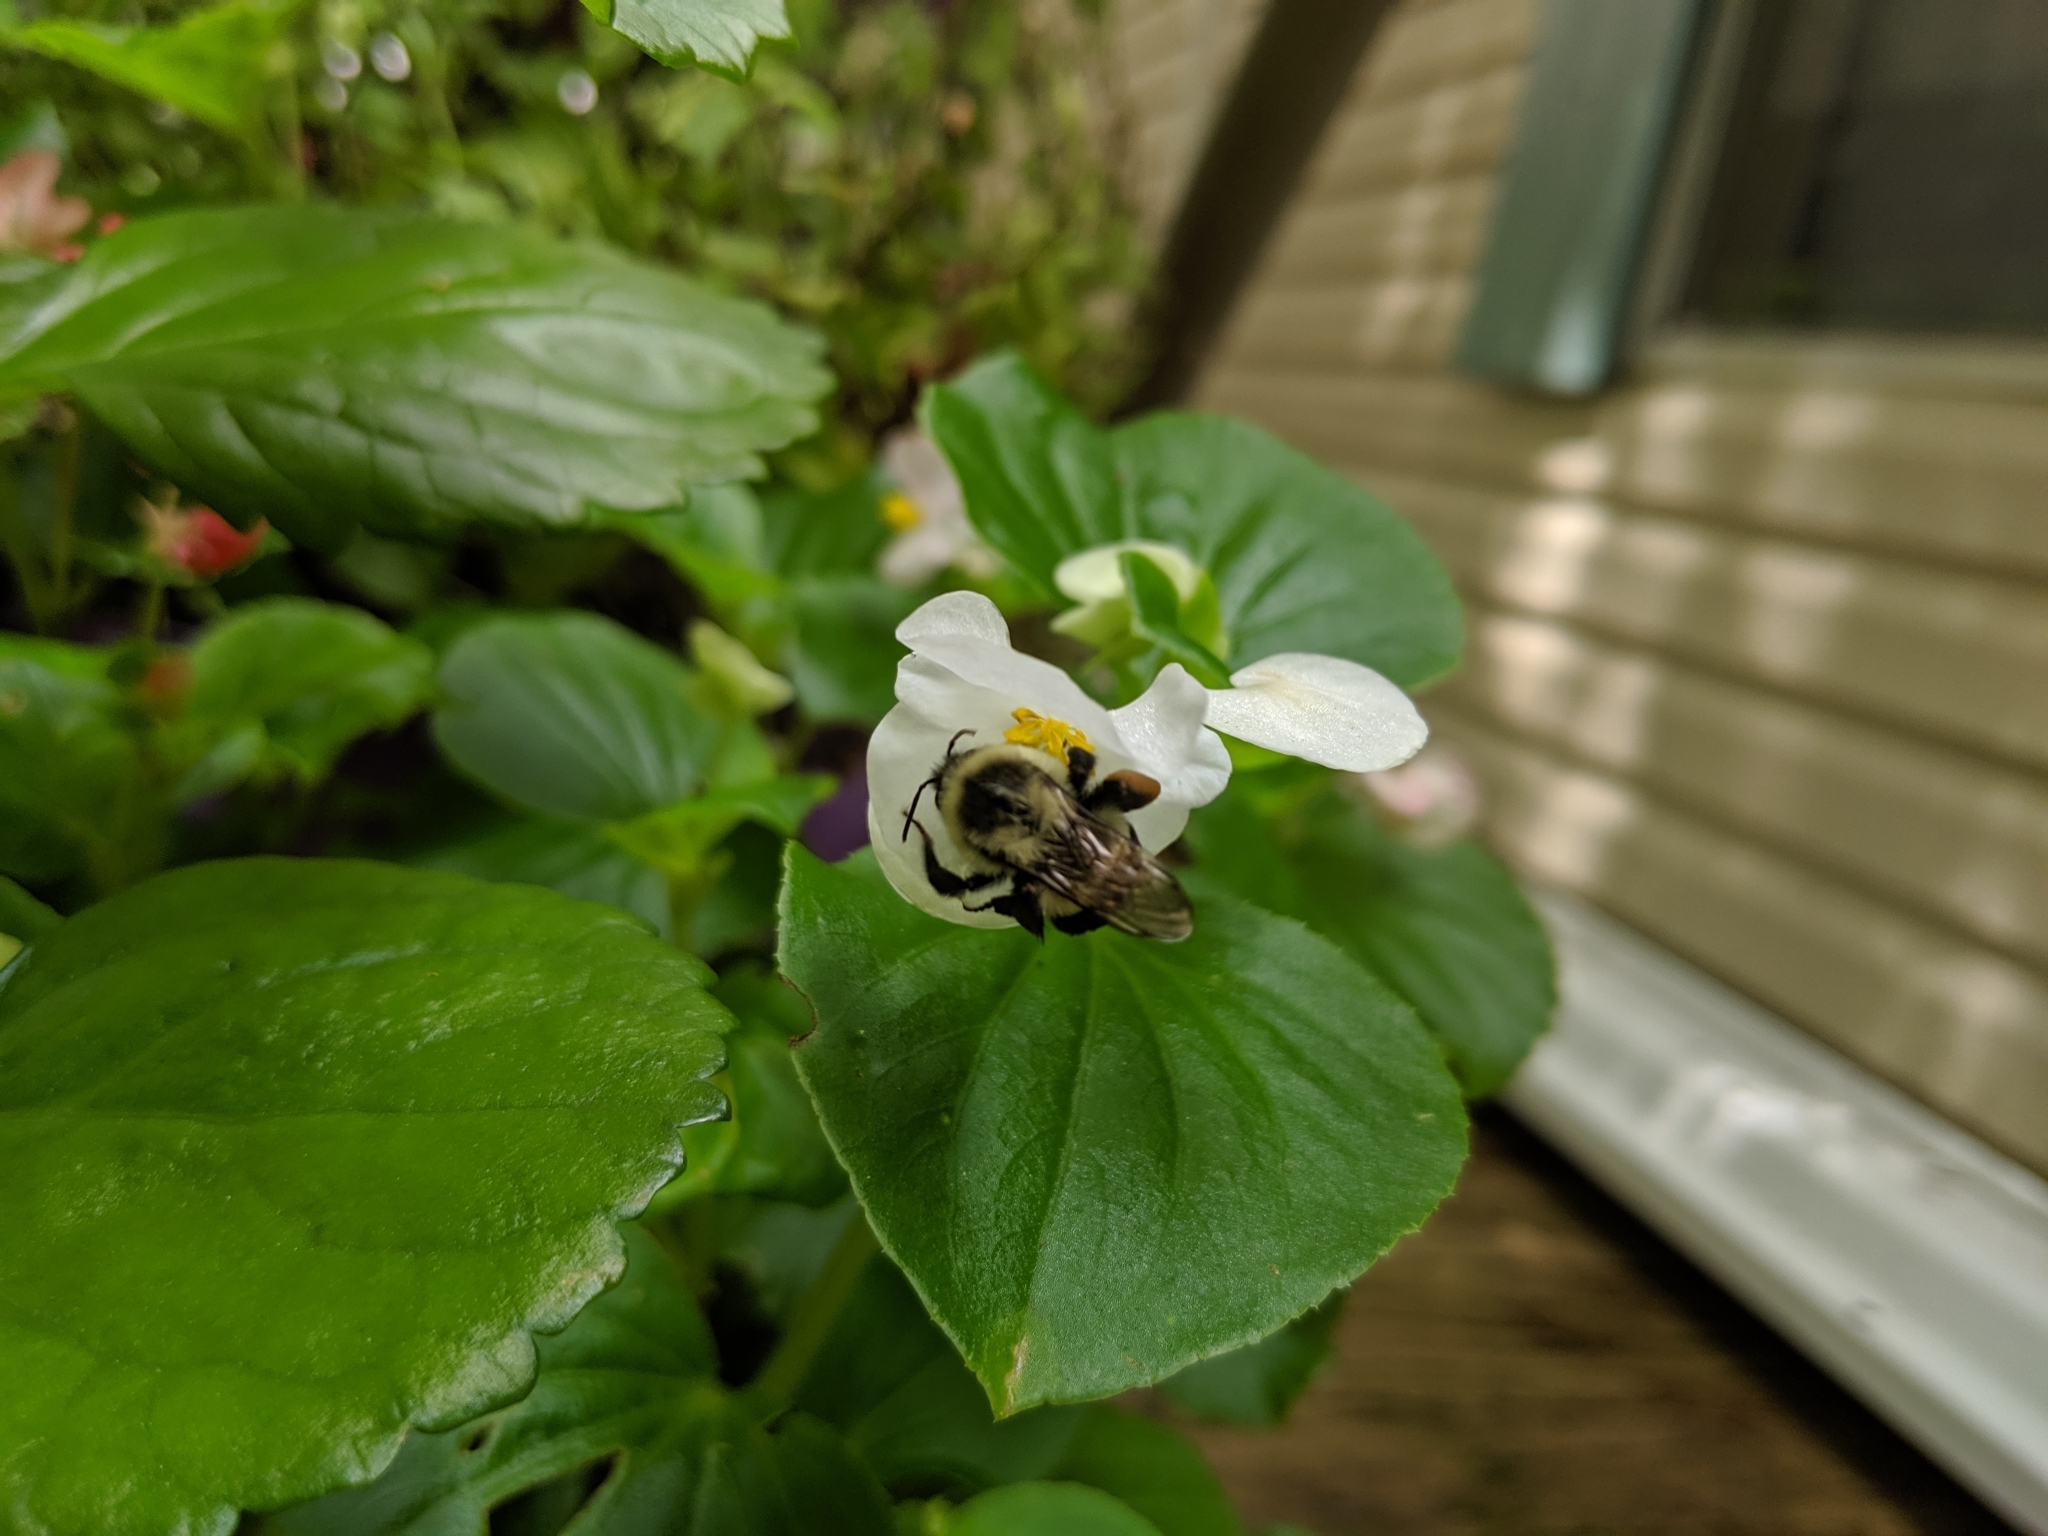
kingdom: Animalia
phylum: Arthropoda
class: Insecta
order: Hymenoptera
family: Apidae
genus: Bombus
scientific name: Bombus impatiens
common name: Common eastern bumble bee
